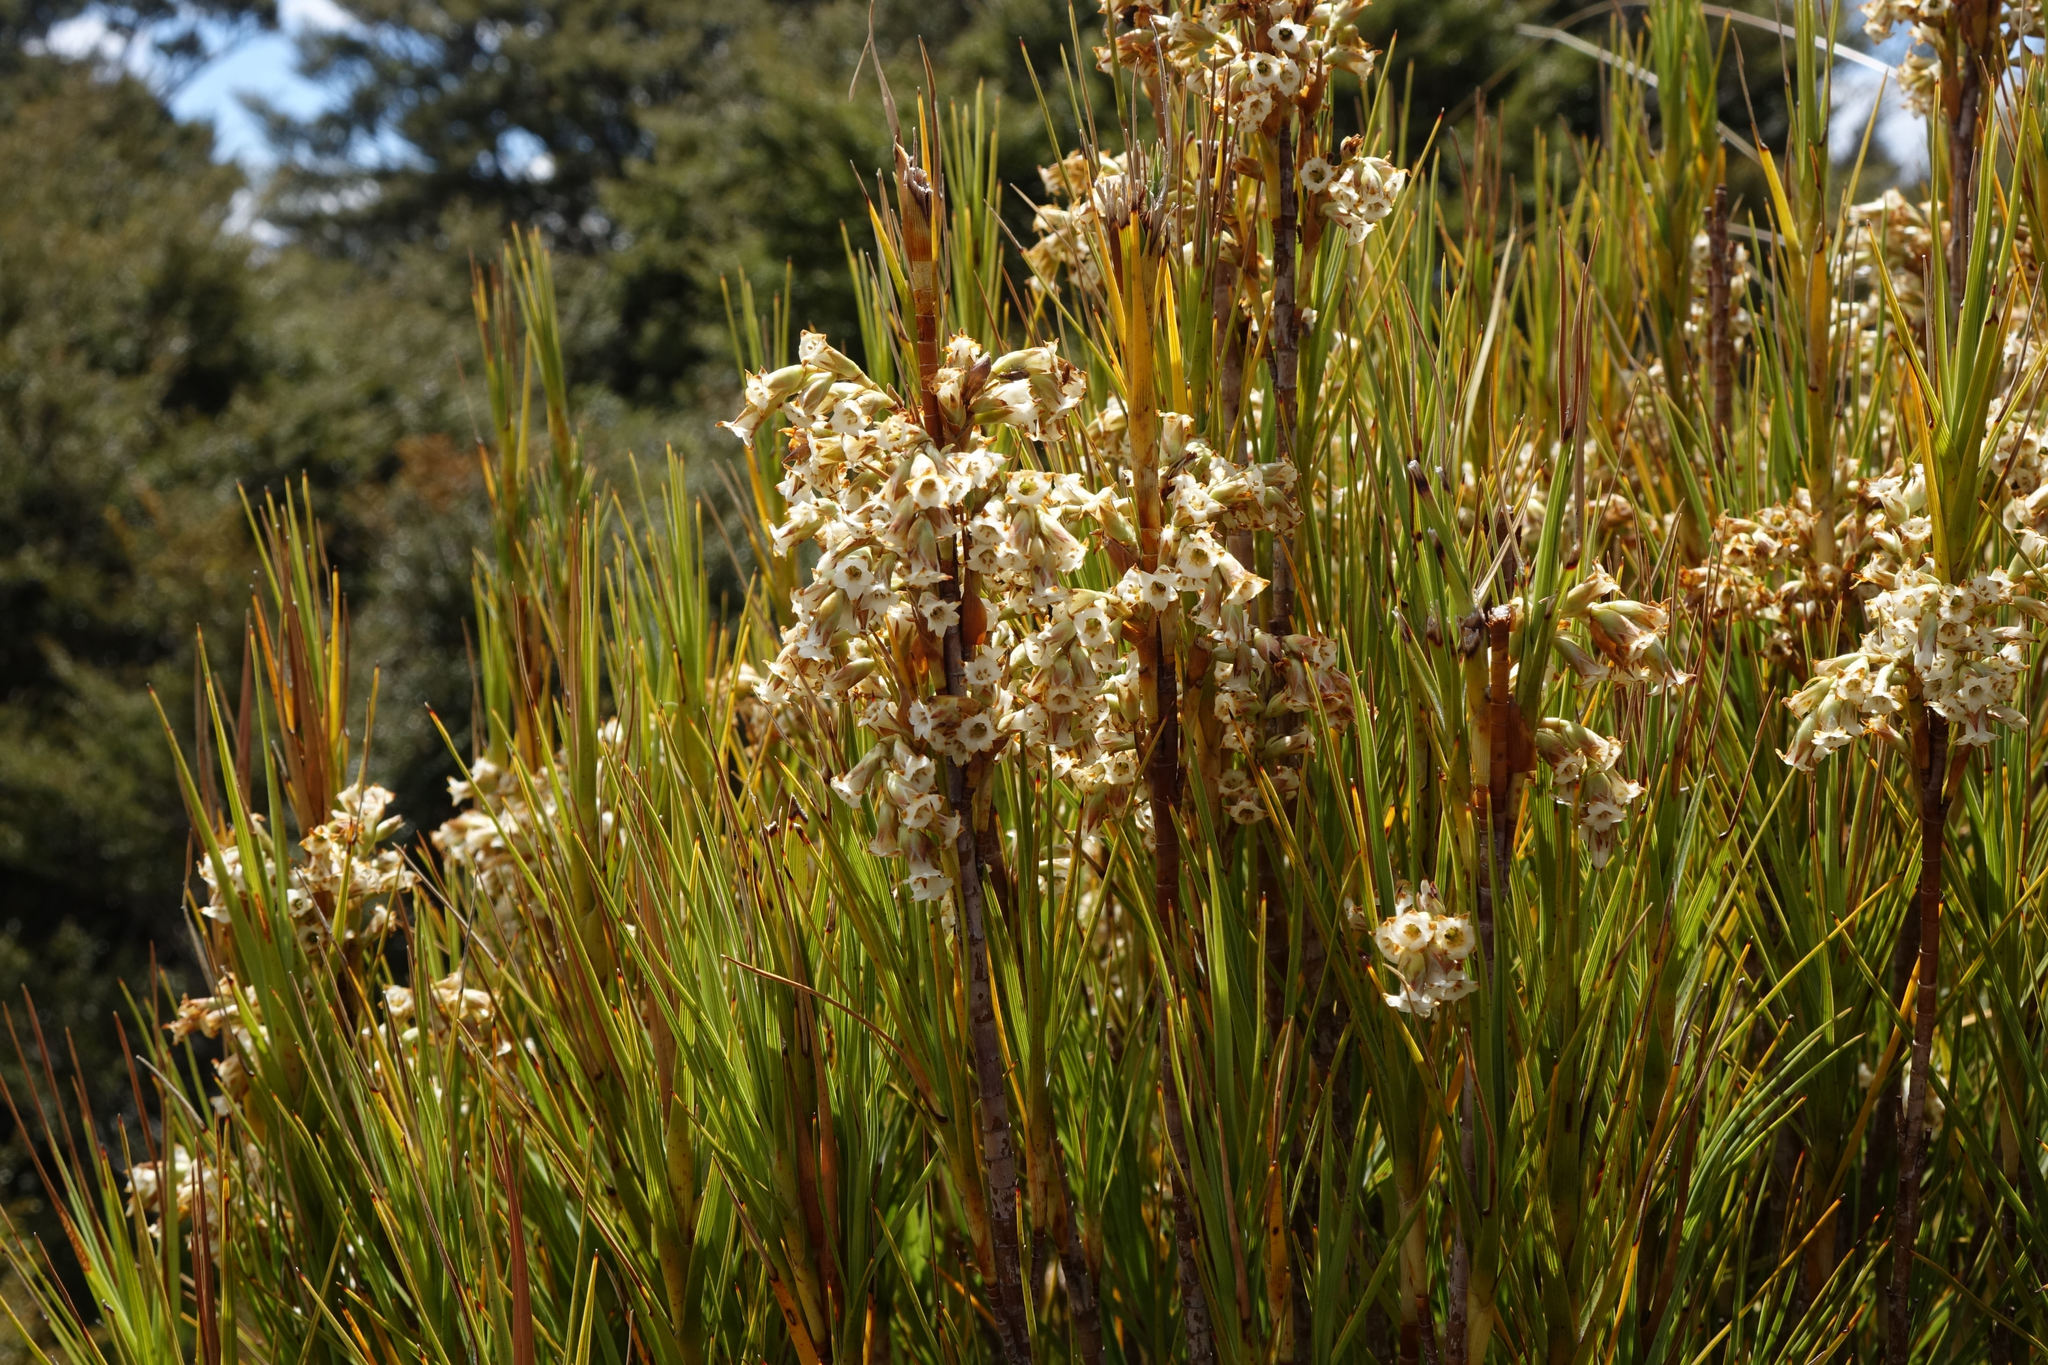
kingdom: Plantae
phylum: Tracheophyta
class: Magnoliopsida
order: Ericales
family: Ericaceae
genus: Dracophyllum
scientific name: Dracophyllum longifolium
